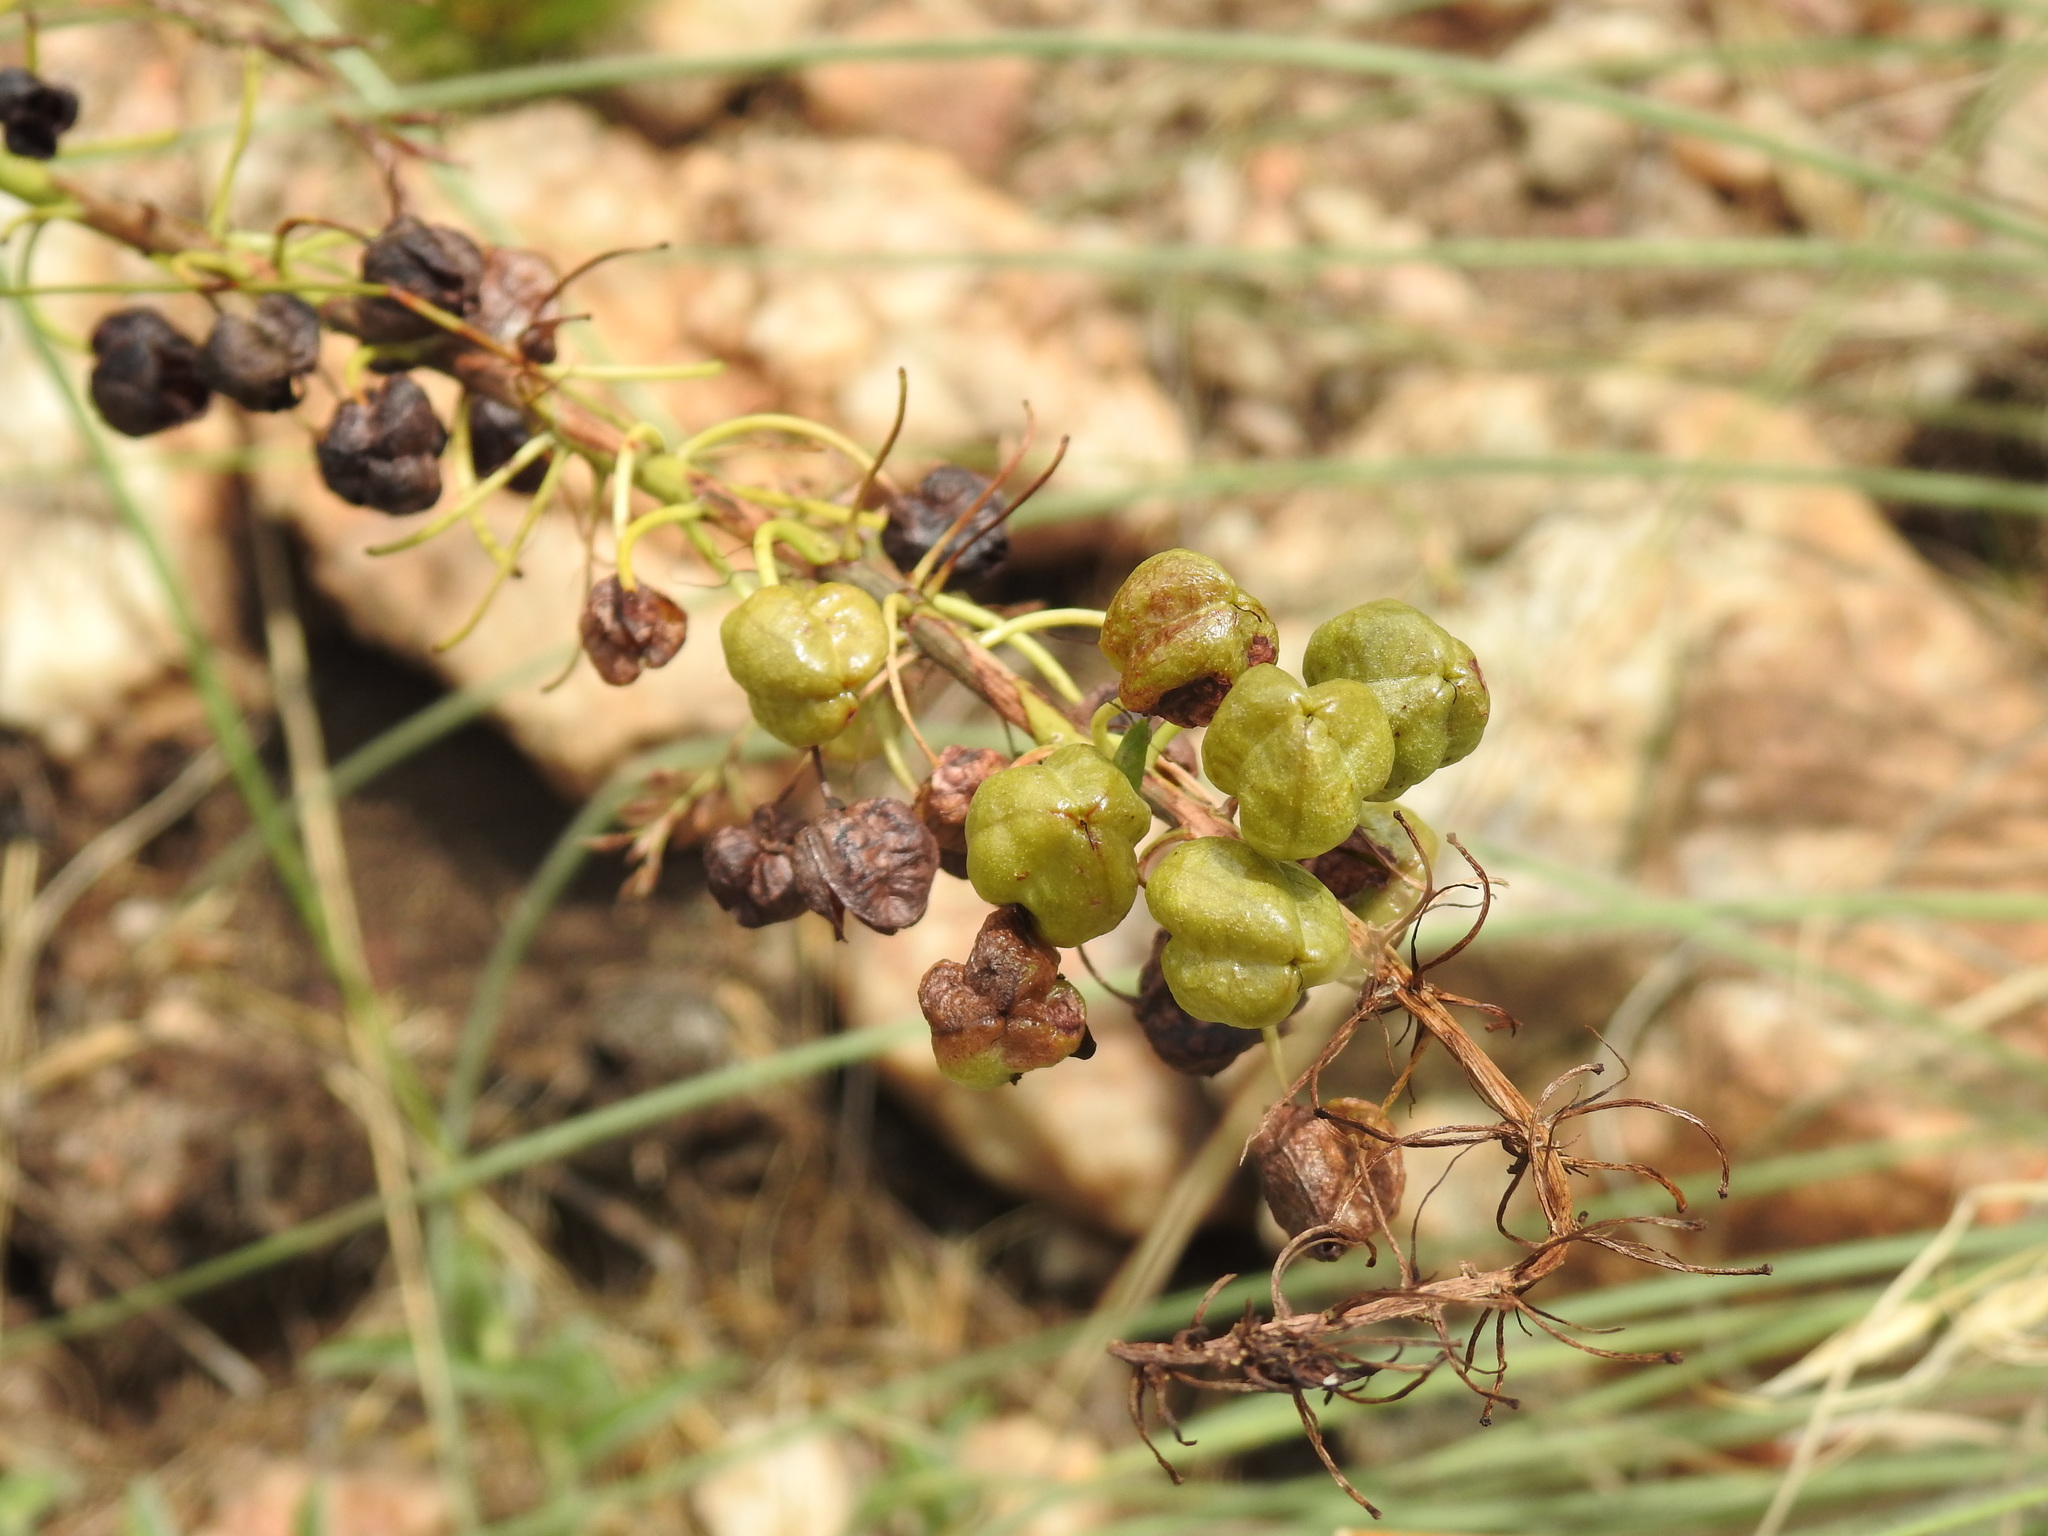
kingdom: Plantae
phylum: Tracheophyta
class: Liliopsida
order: Asparagales
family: Asphodelaceae
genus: Bulbine
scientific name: Bulbine angustifolia
